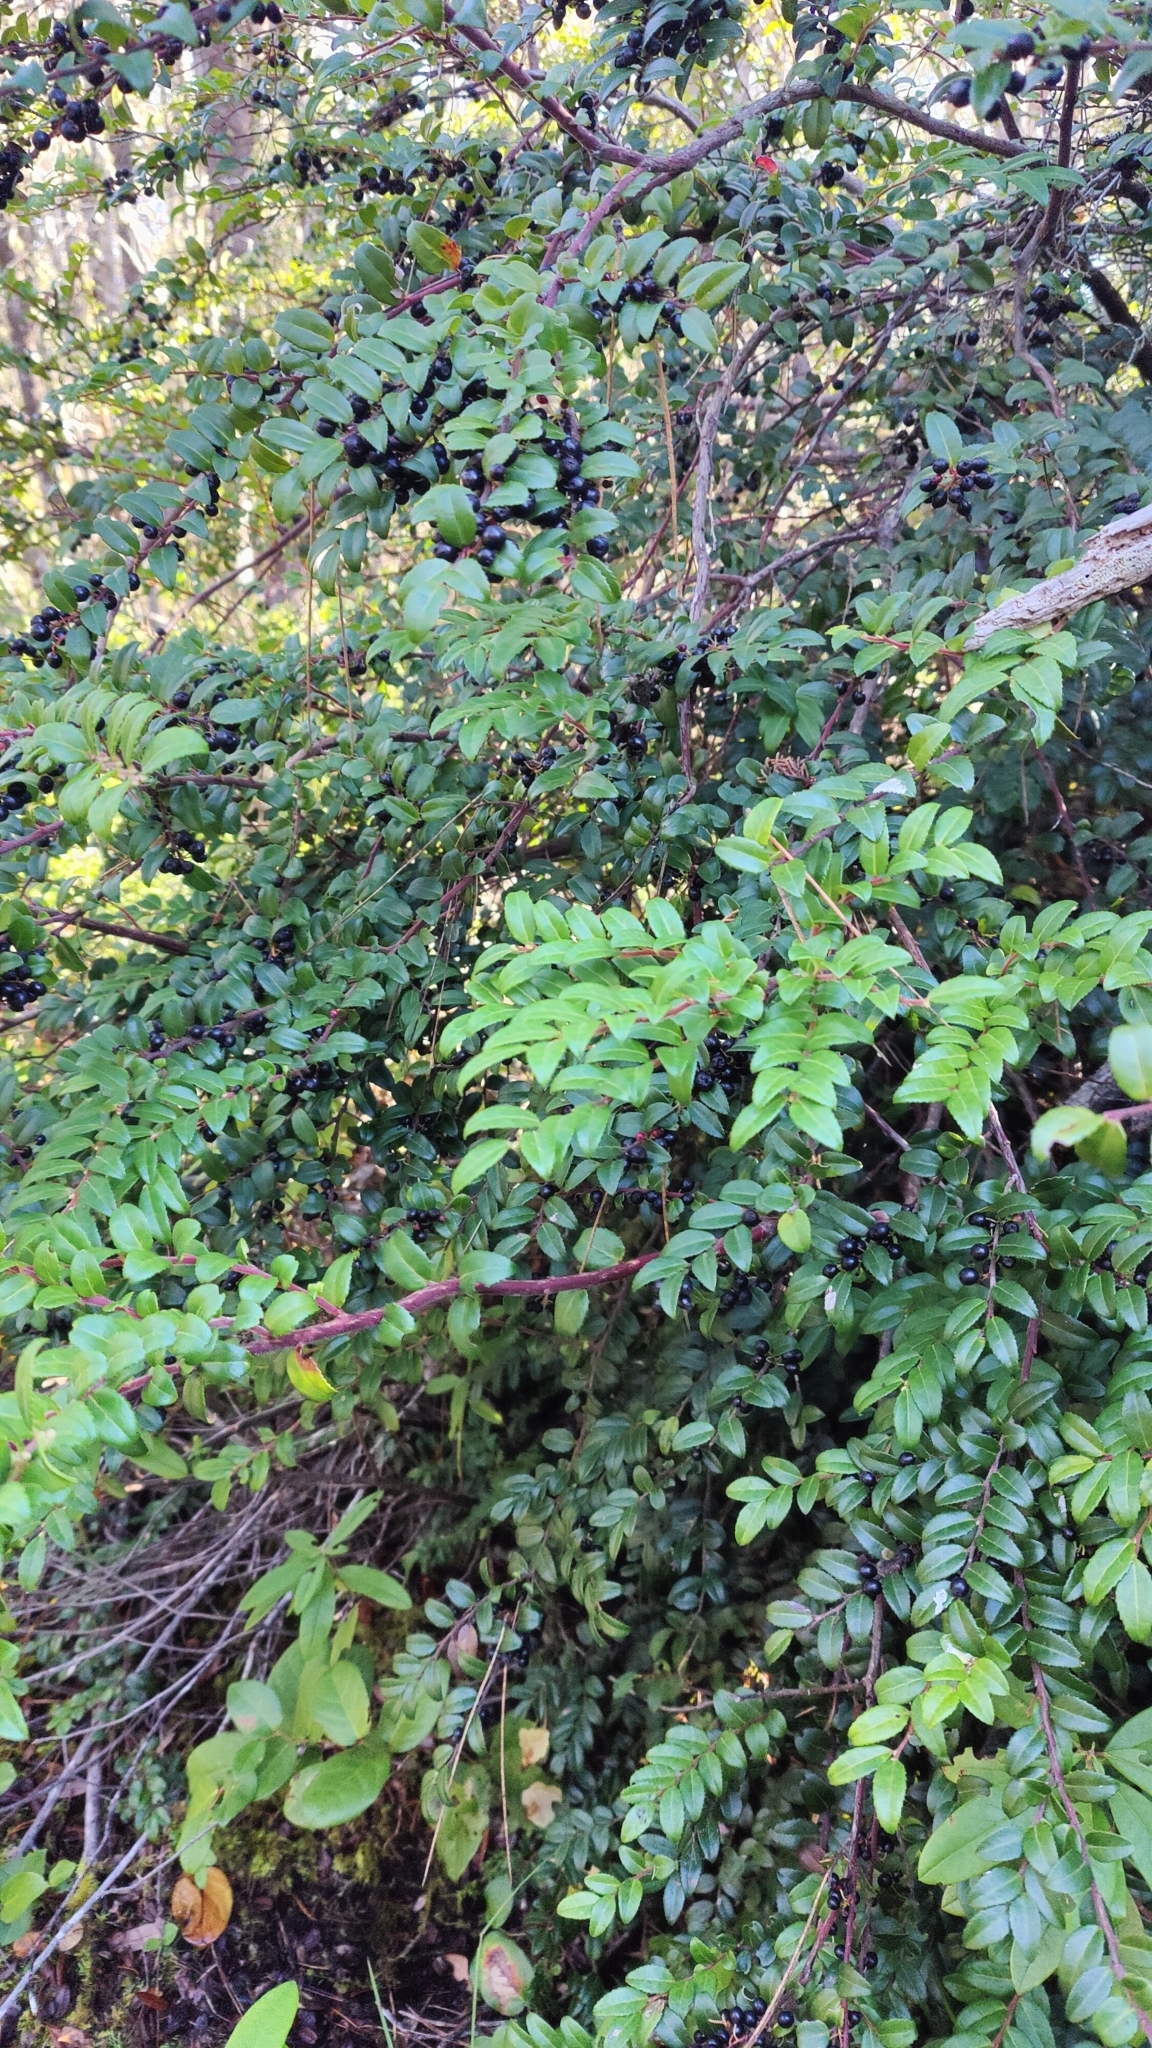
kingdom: Plantae
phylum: Tracheophyta
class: Magnoliopsida
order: Ericales
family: Ericaceae
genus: Vaccinium
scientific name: Vaccinium ovatum
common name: California-huckleberry
